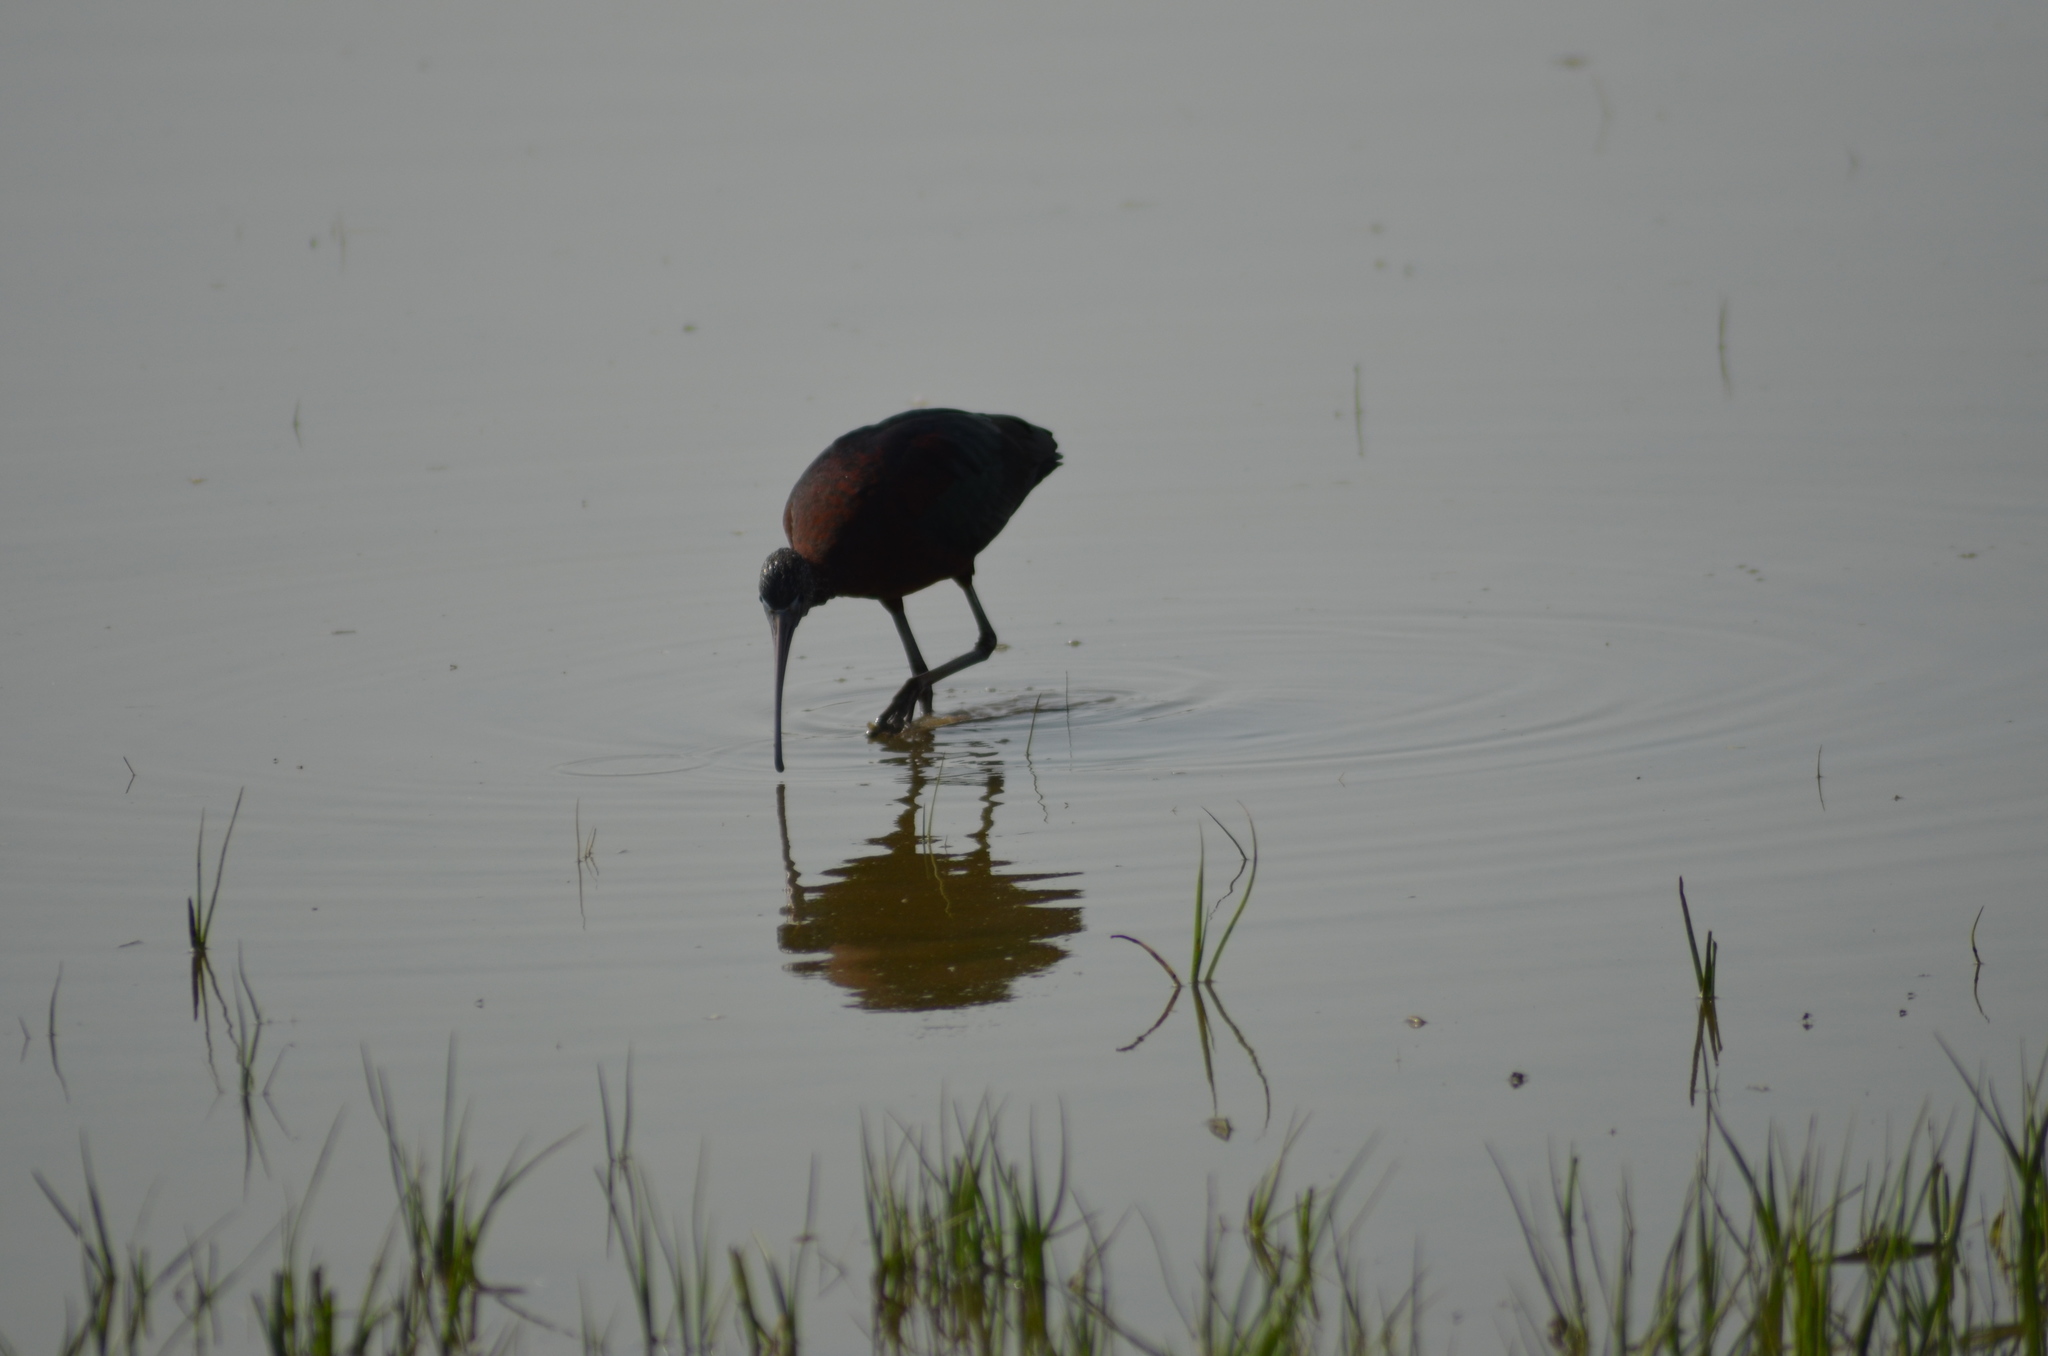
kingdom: Animalia
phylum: Chordata
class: Aves
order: Pelecaniformes
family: Threskiornithidae
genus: Plegadis
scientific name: Plegadis falcinellus
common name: Glossy ibis
